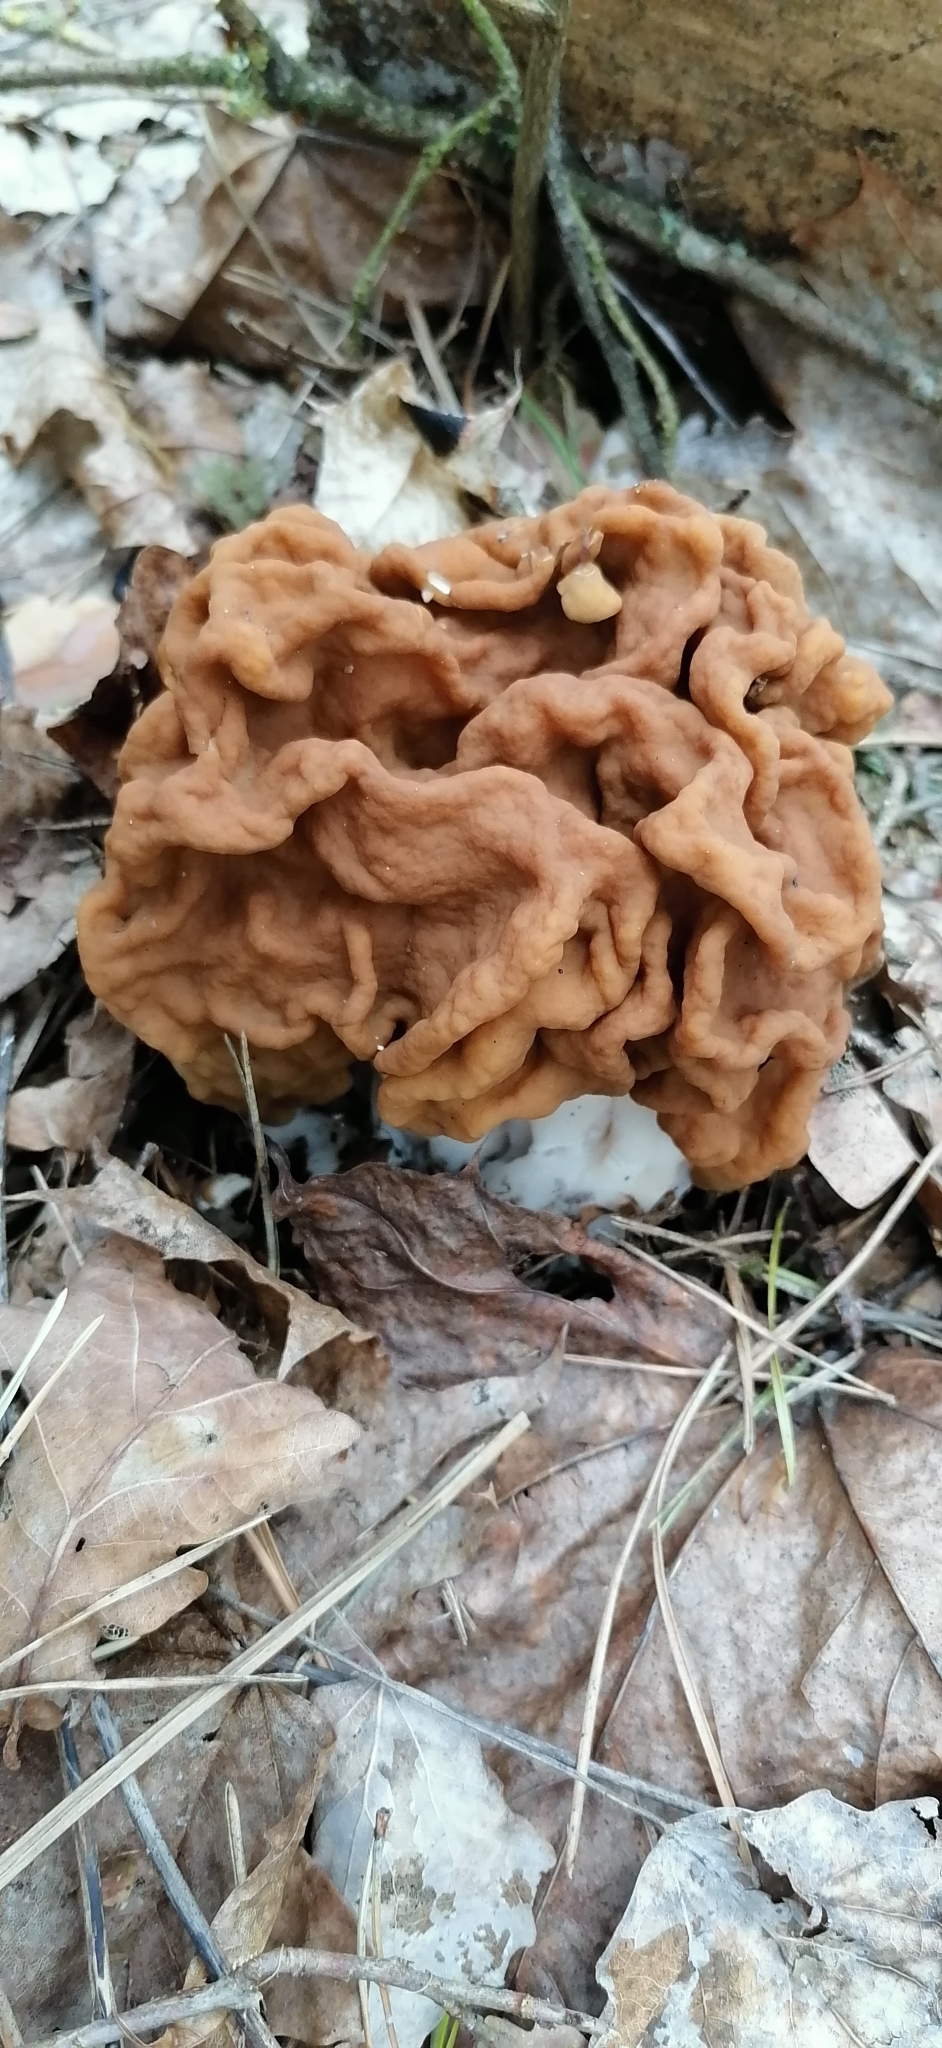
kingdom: Fungi
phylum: Ascomycota
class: Pezizomycetes
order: Pezizales
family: Discinaceae
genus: Gyromitra
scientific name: Gyromitra gigas
